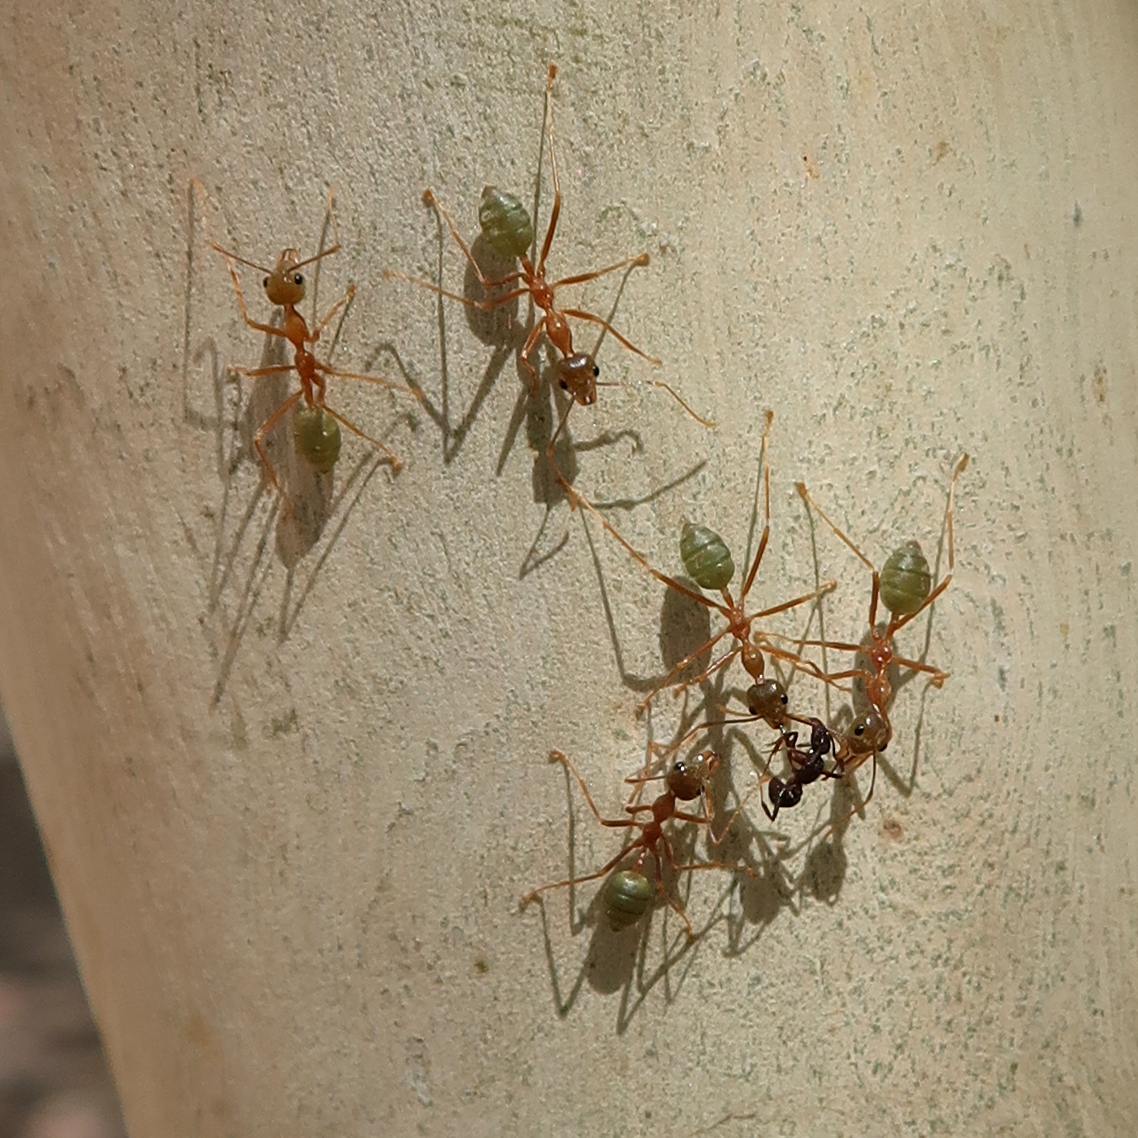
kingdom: Animalia
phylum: Arthropoda
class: Insecta
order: Hymenoptera
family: Formicidae
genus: Oecophylla
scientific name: Oecophylla smaragdina
